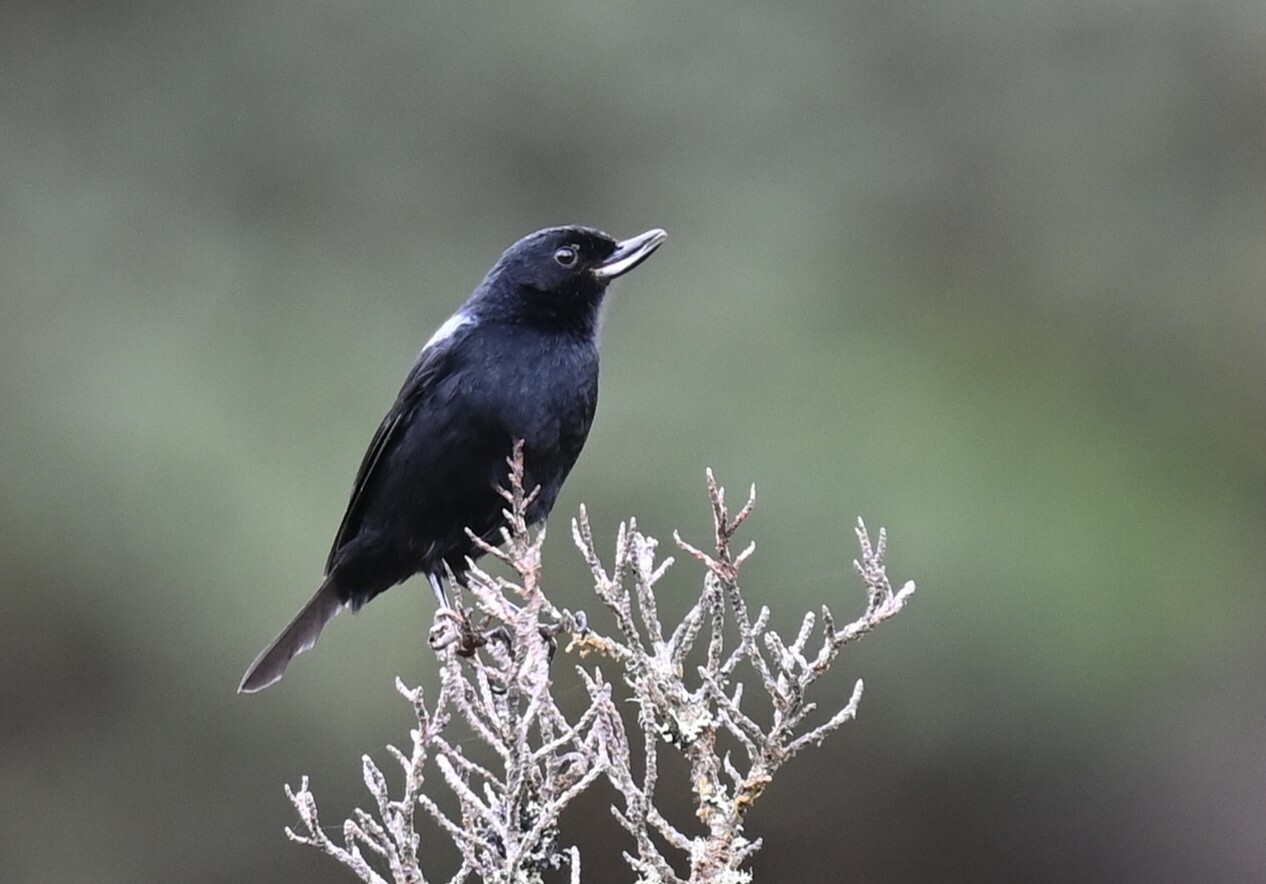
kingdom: Animalia
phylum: Chordata
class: Aves
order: Passeriformes
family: Thraupidae
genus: Diglossa
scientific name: Diglossa lafresnayii
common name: Glossy flowerpiercer
